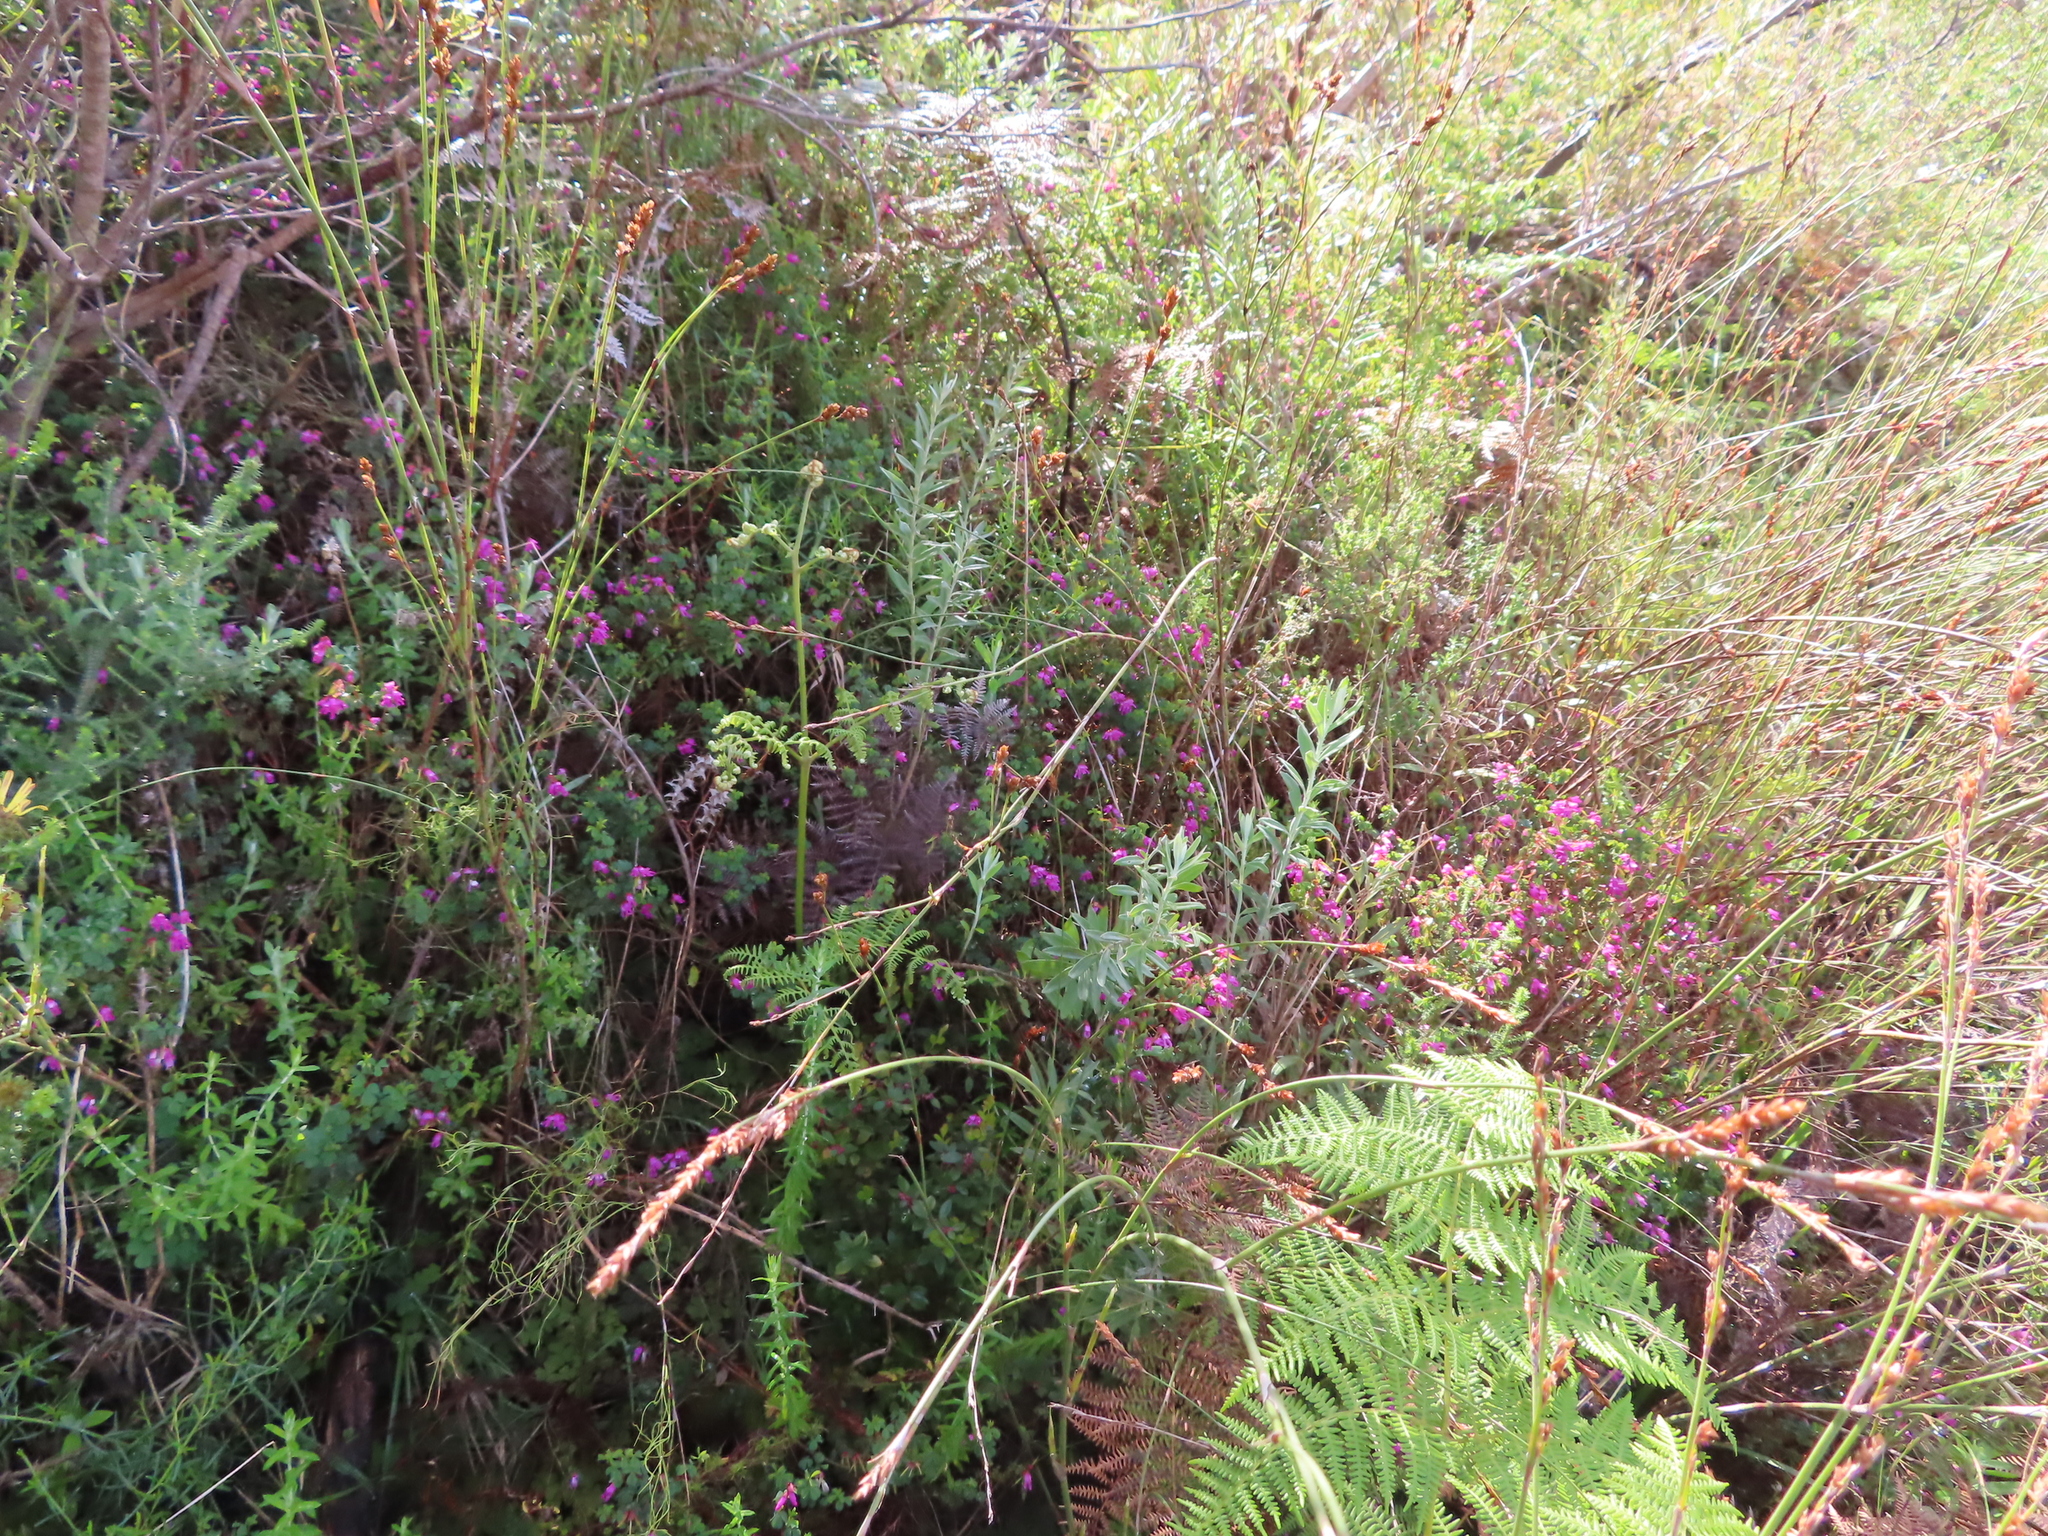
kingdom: Plantae
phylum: Tracheophyta
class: Magnoliopsida
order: Fabales
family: Fabaceae
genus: Hypocalyptus
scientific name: Hypocalyptus oxalidifolius
